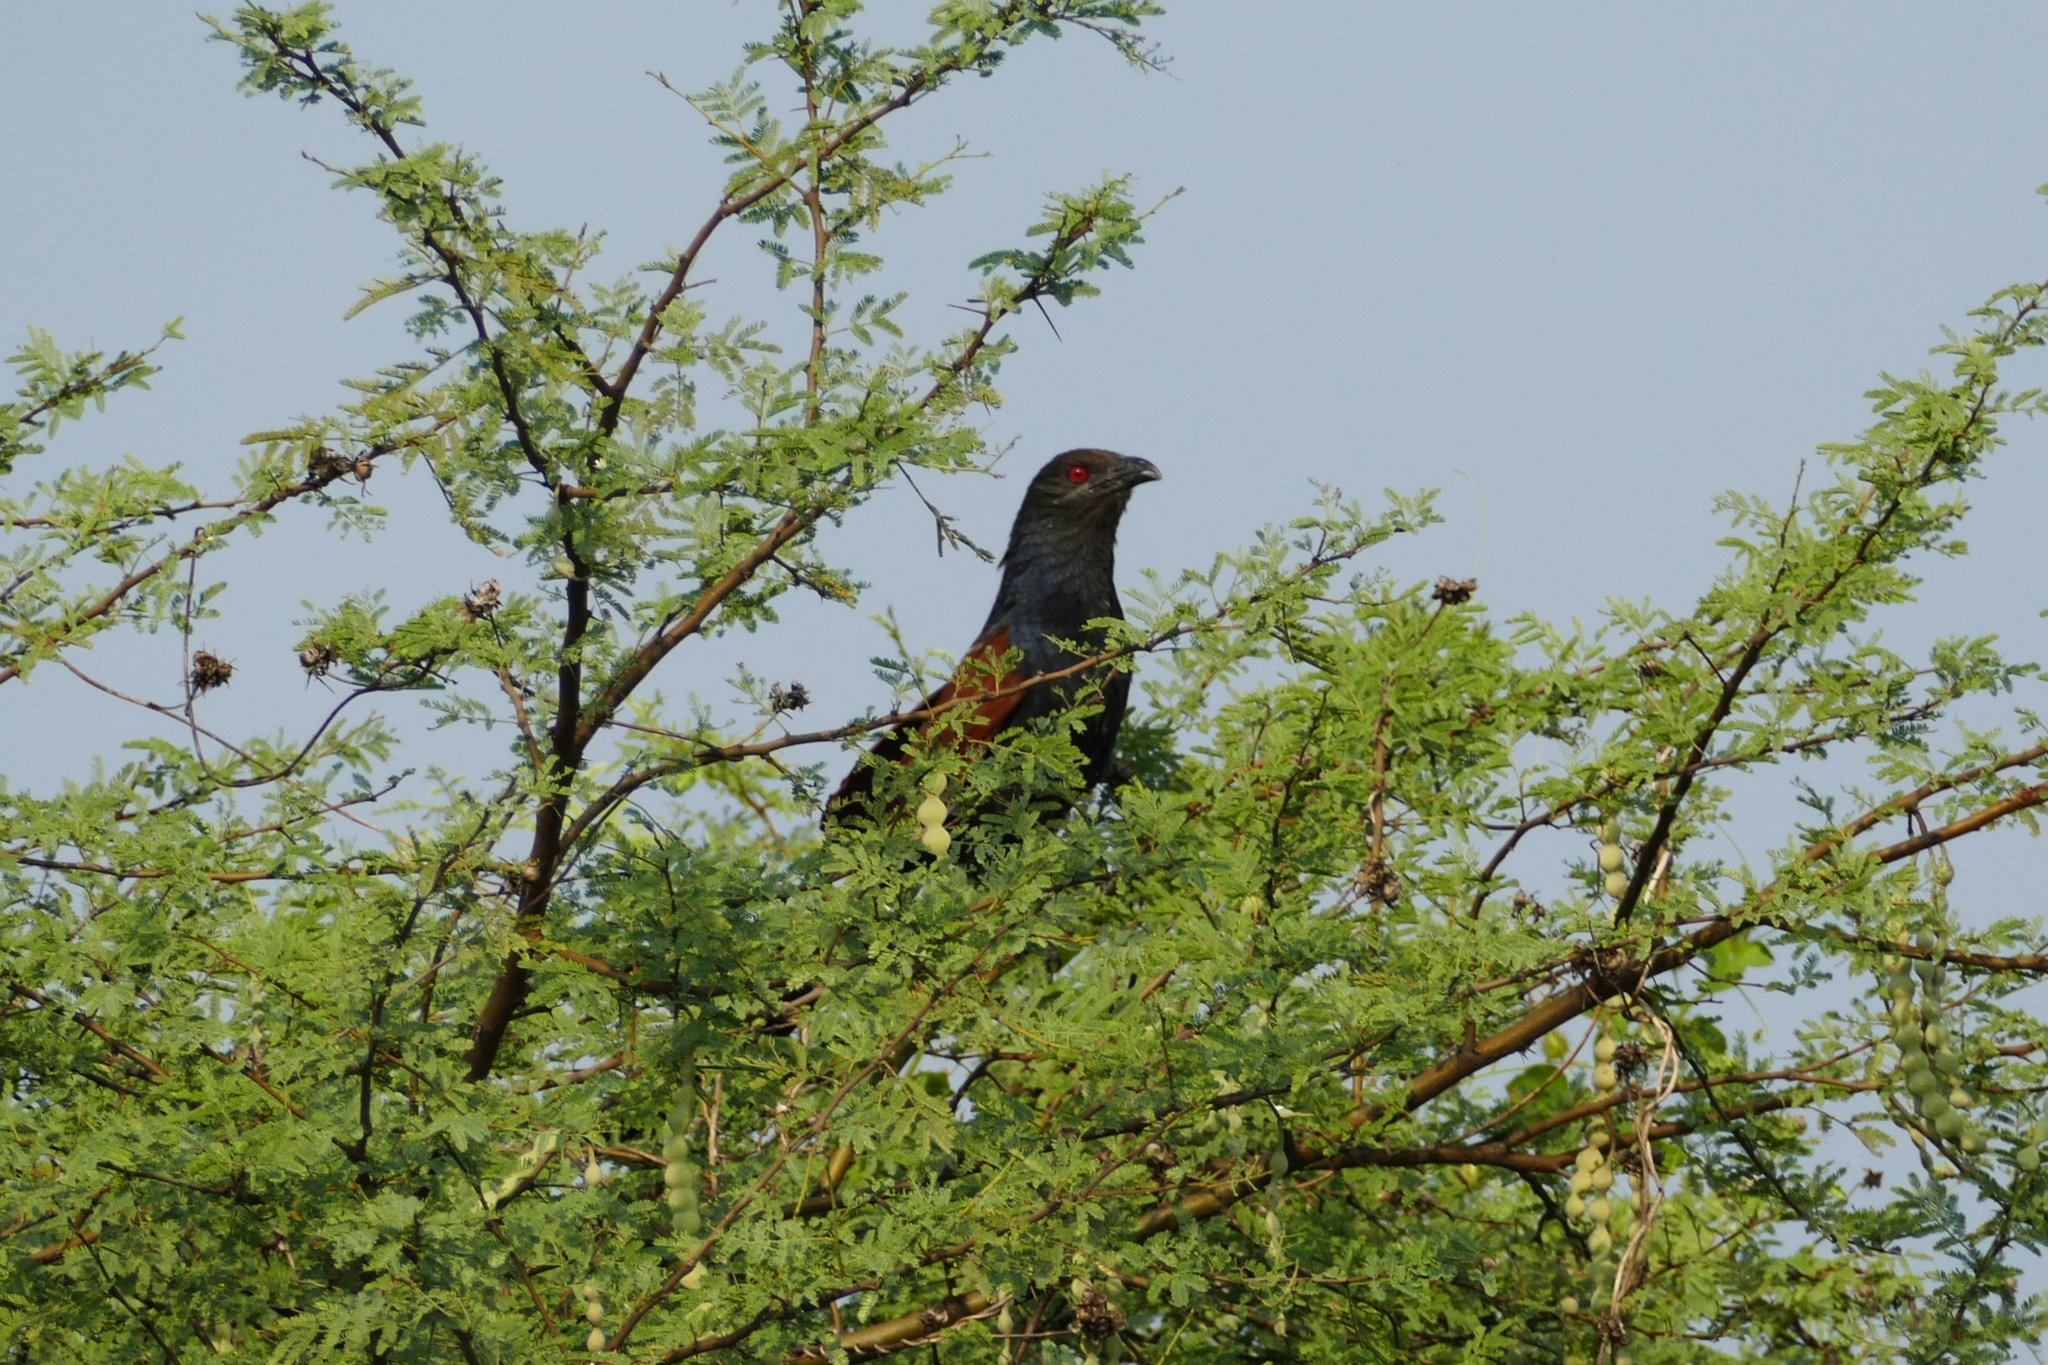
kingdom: Animalia
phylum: Chordata
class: Aves
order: Cuculiformes
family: Cuculidae
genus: Centropus
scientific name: Centropus sinensis
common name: Greater coucal
